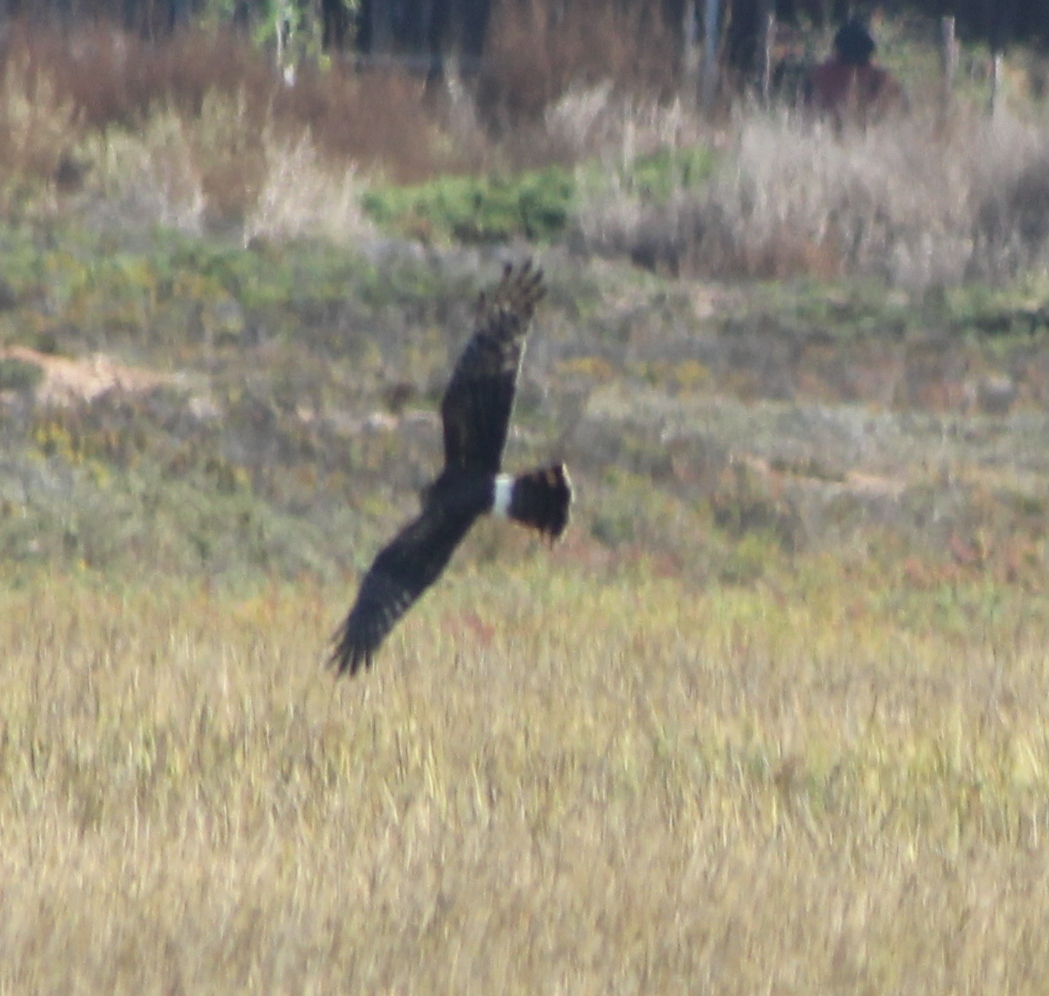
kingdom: Animalia
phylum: Chordata
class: Aves
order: Accipitriformes
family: Accipitridae
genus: Circus
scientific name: Circus cyaneus
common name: Hen harrier
